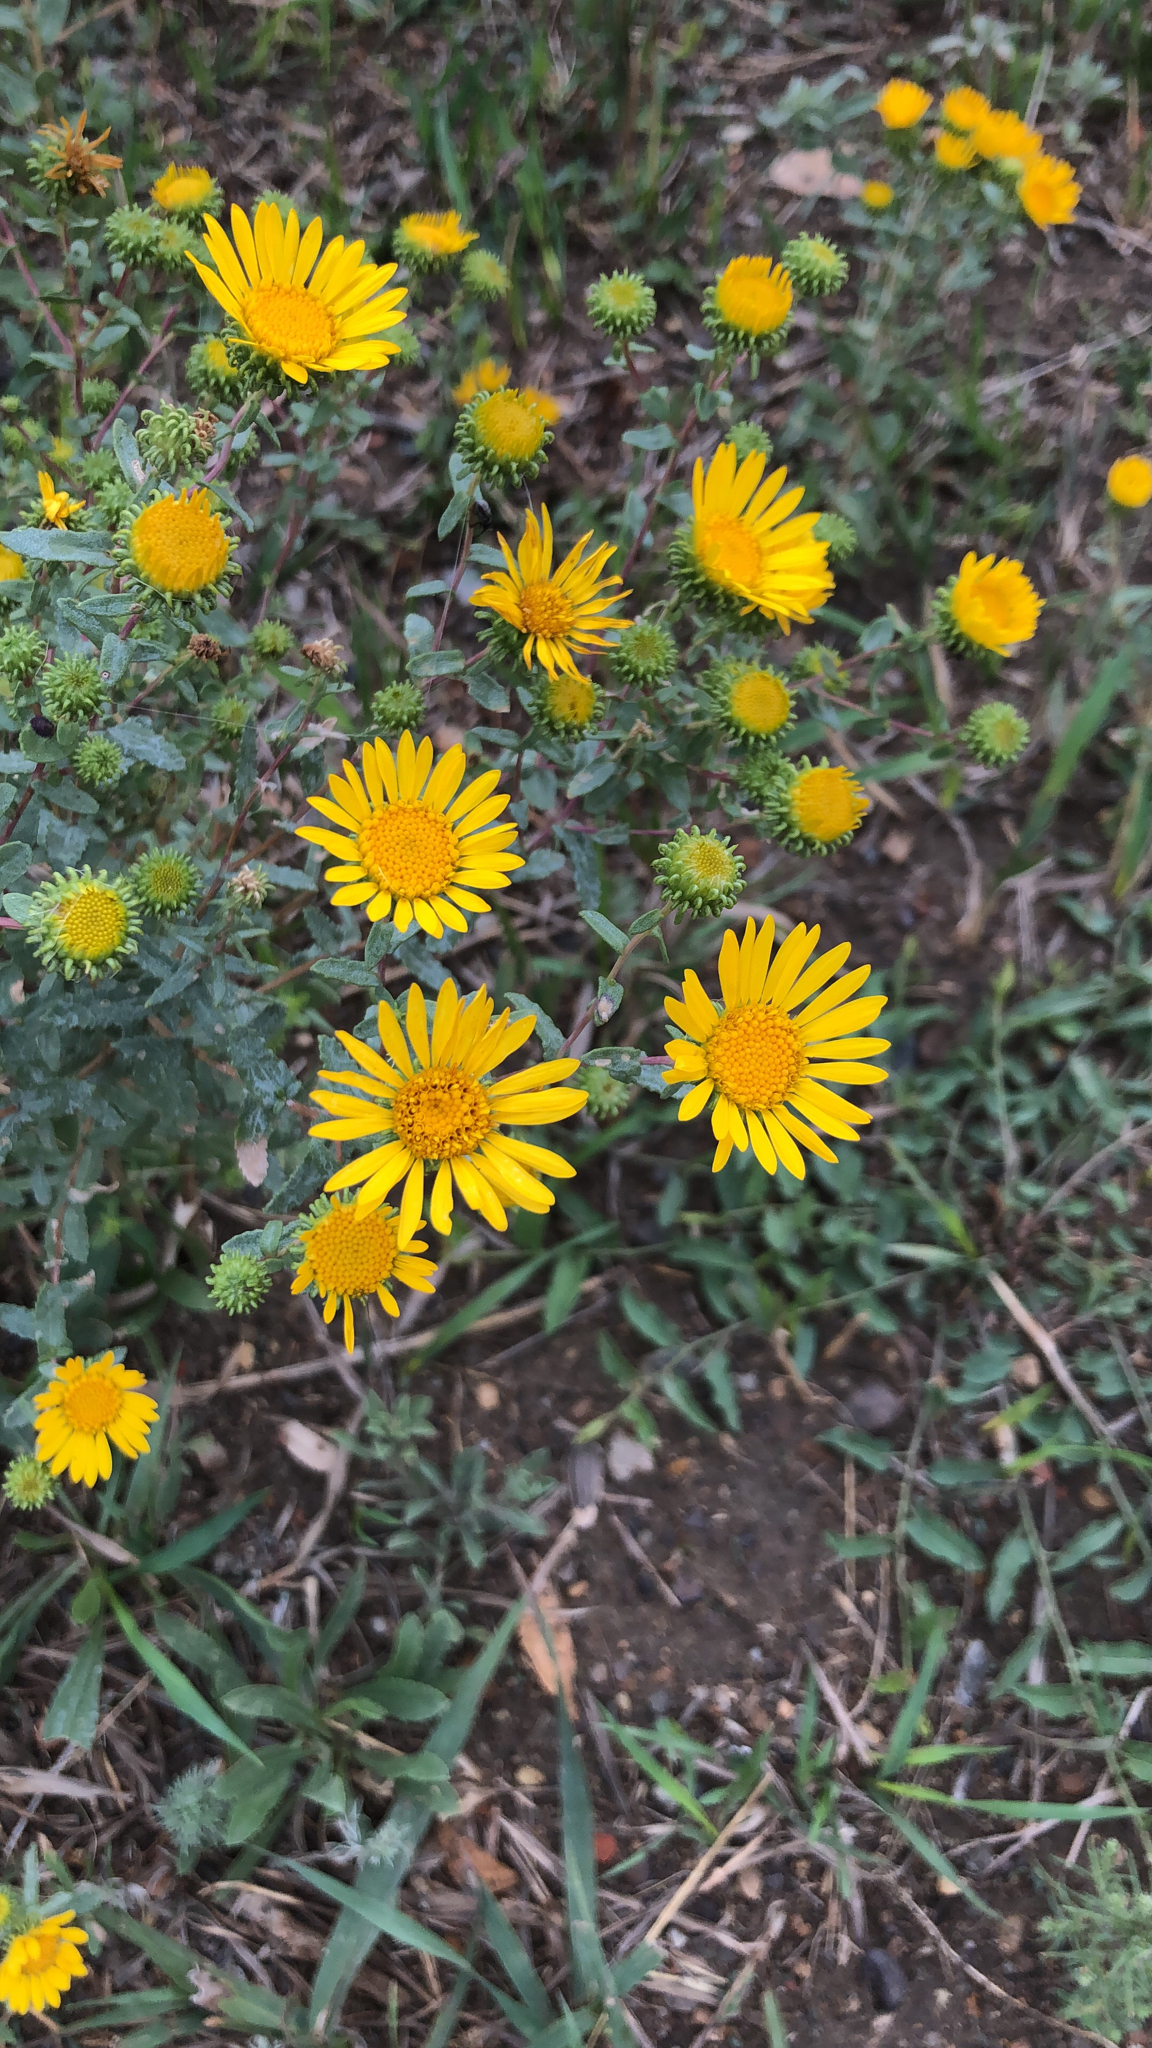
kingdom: Plantae
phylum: Tracheophyta
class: Magnoliopsida
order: Asterales
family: Asteraceae
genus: Grindelia
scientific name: Grindelia squarrosa
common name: Curly-cup gumweed
